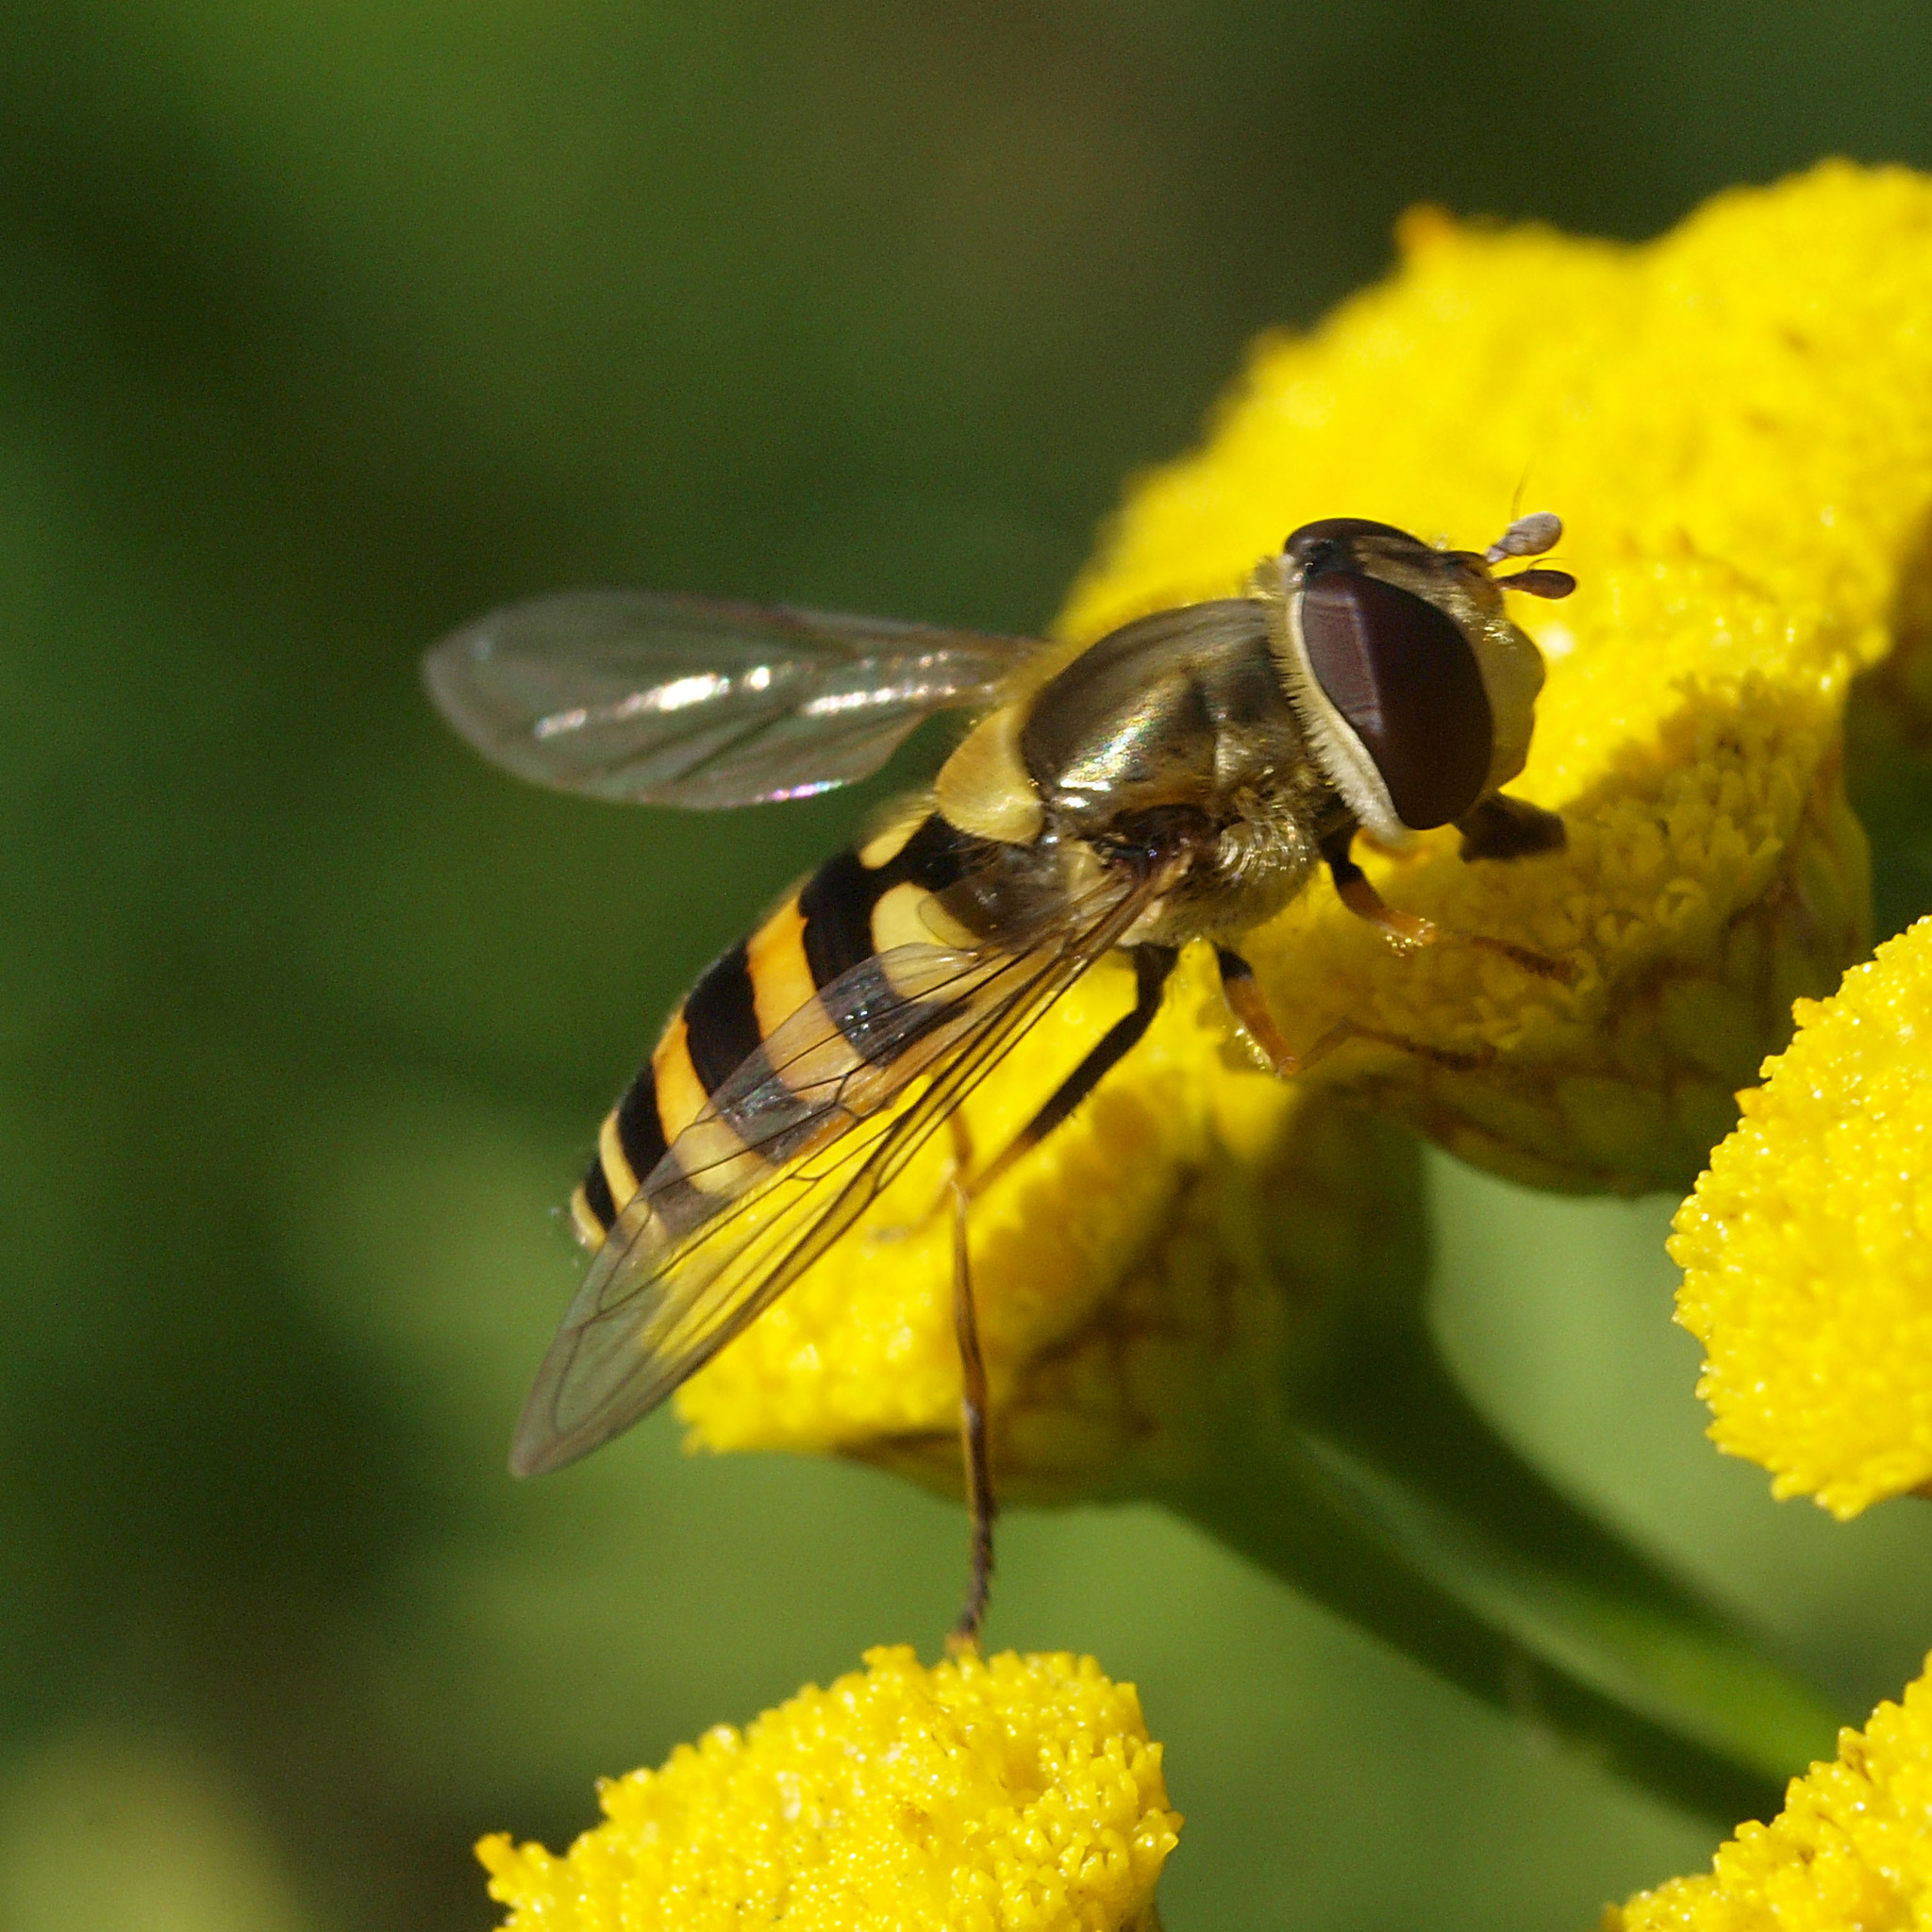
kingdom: Animalia
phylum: Arthropoda
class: Insecta
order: Diptera
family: Syrphidae
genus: Syrphus
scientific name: Syrphus vitripennis
